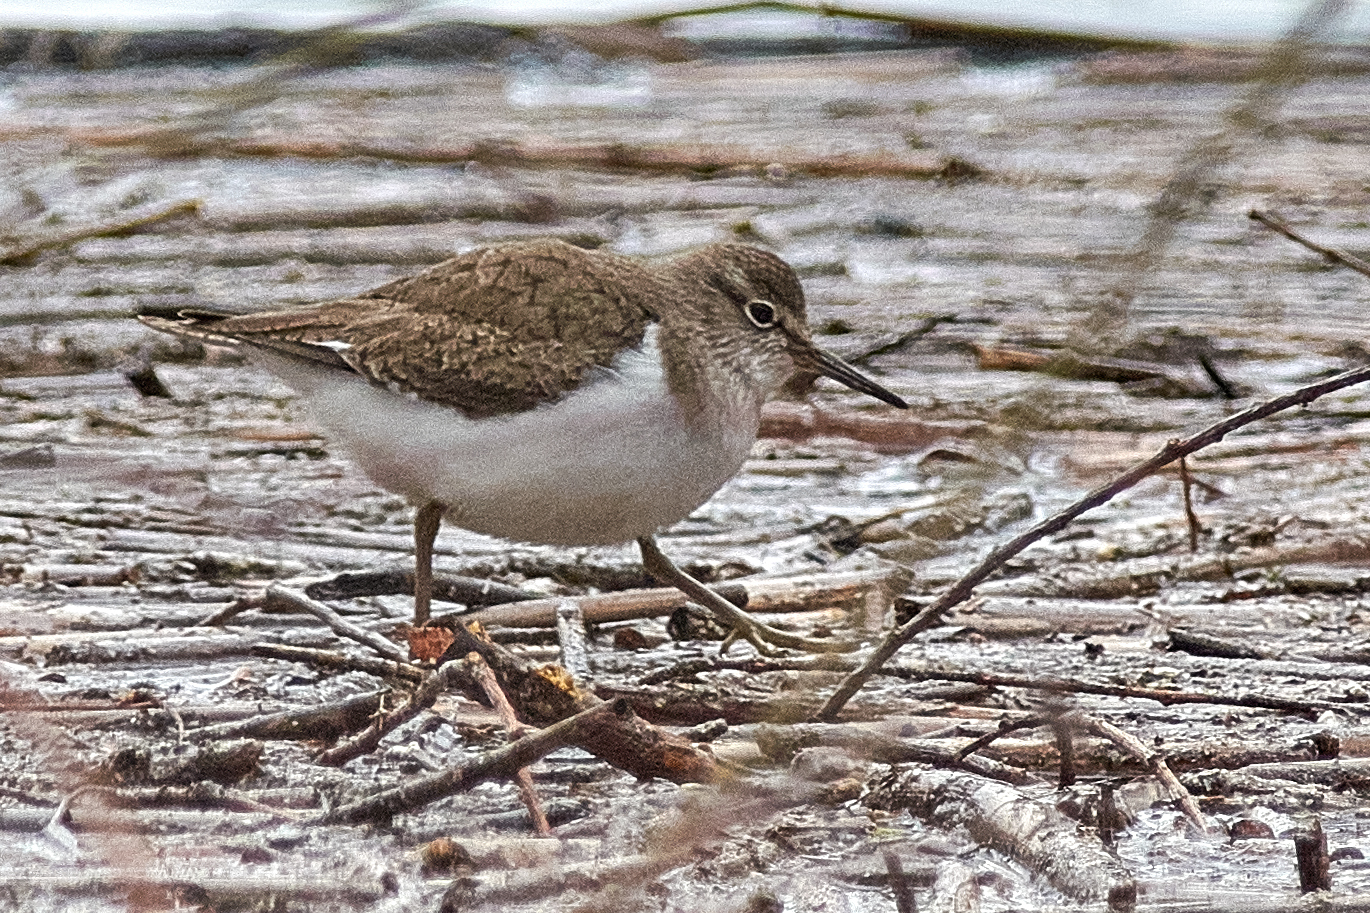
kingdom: Animalia
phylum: Chordata
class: Aves
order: Charadriiformes
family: Scolopacidae
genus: Actitis
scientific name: Actitis hypoleucos
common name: Common sandpiper
